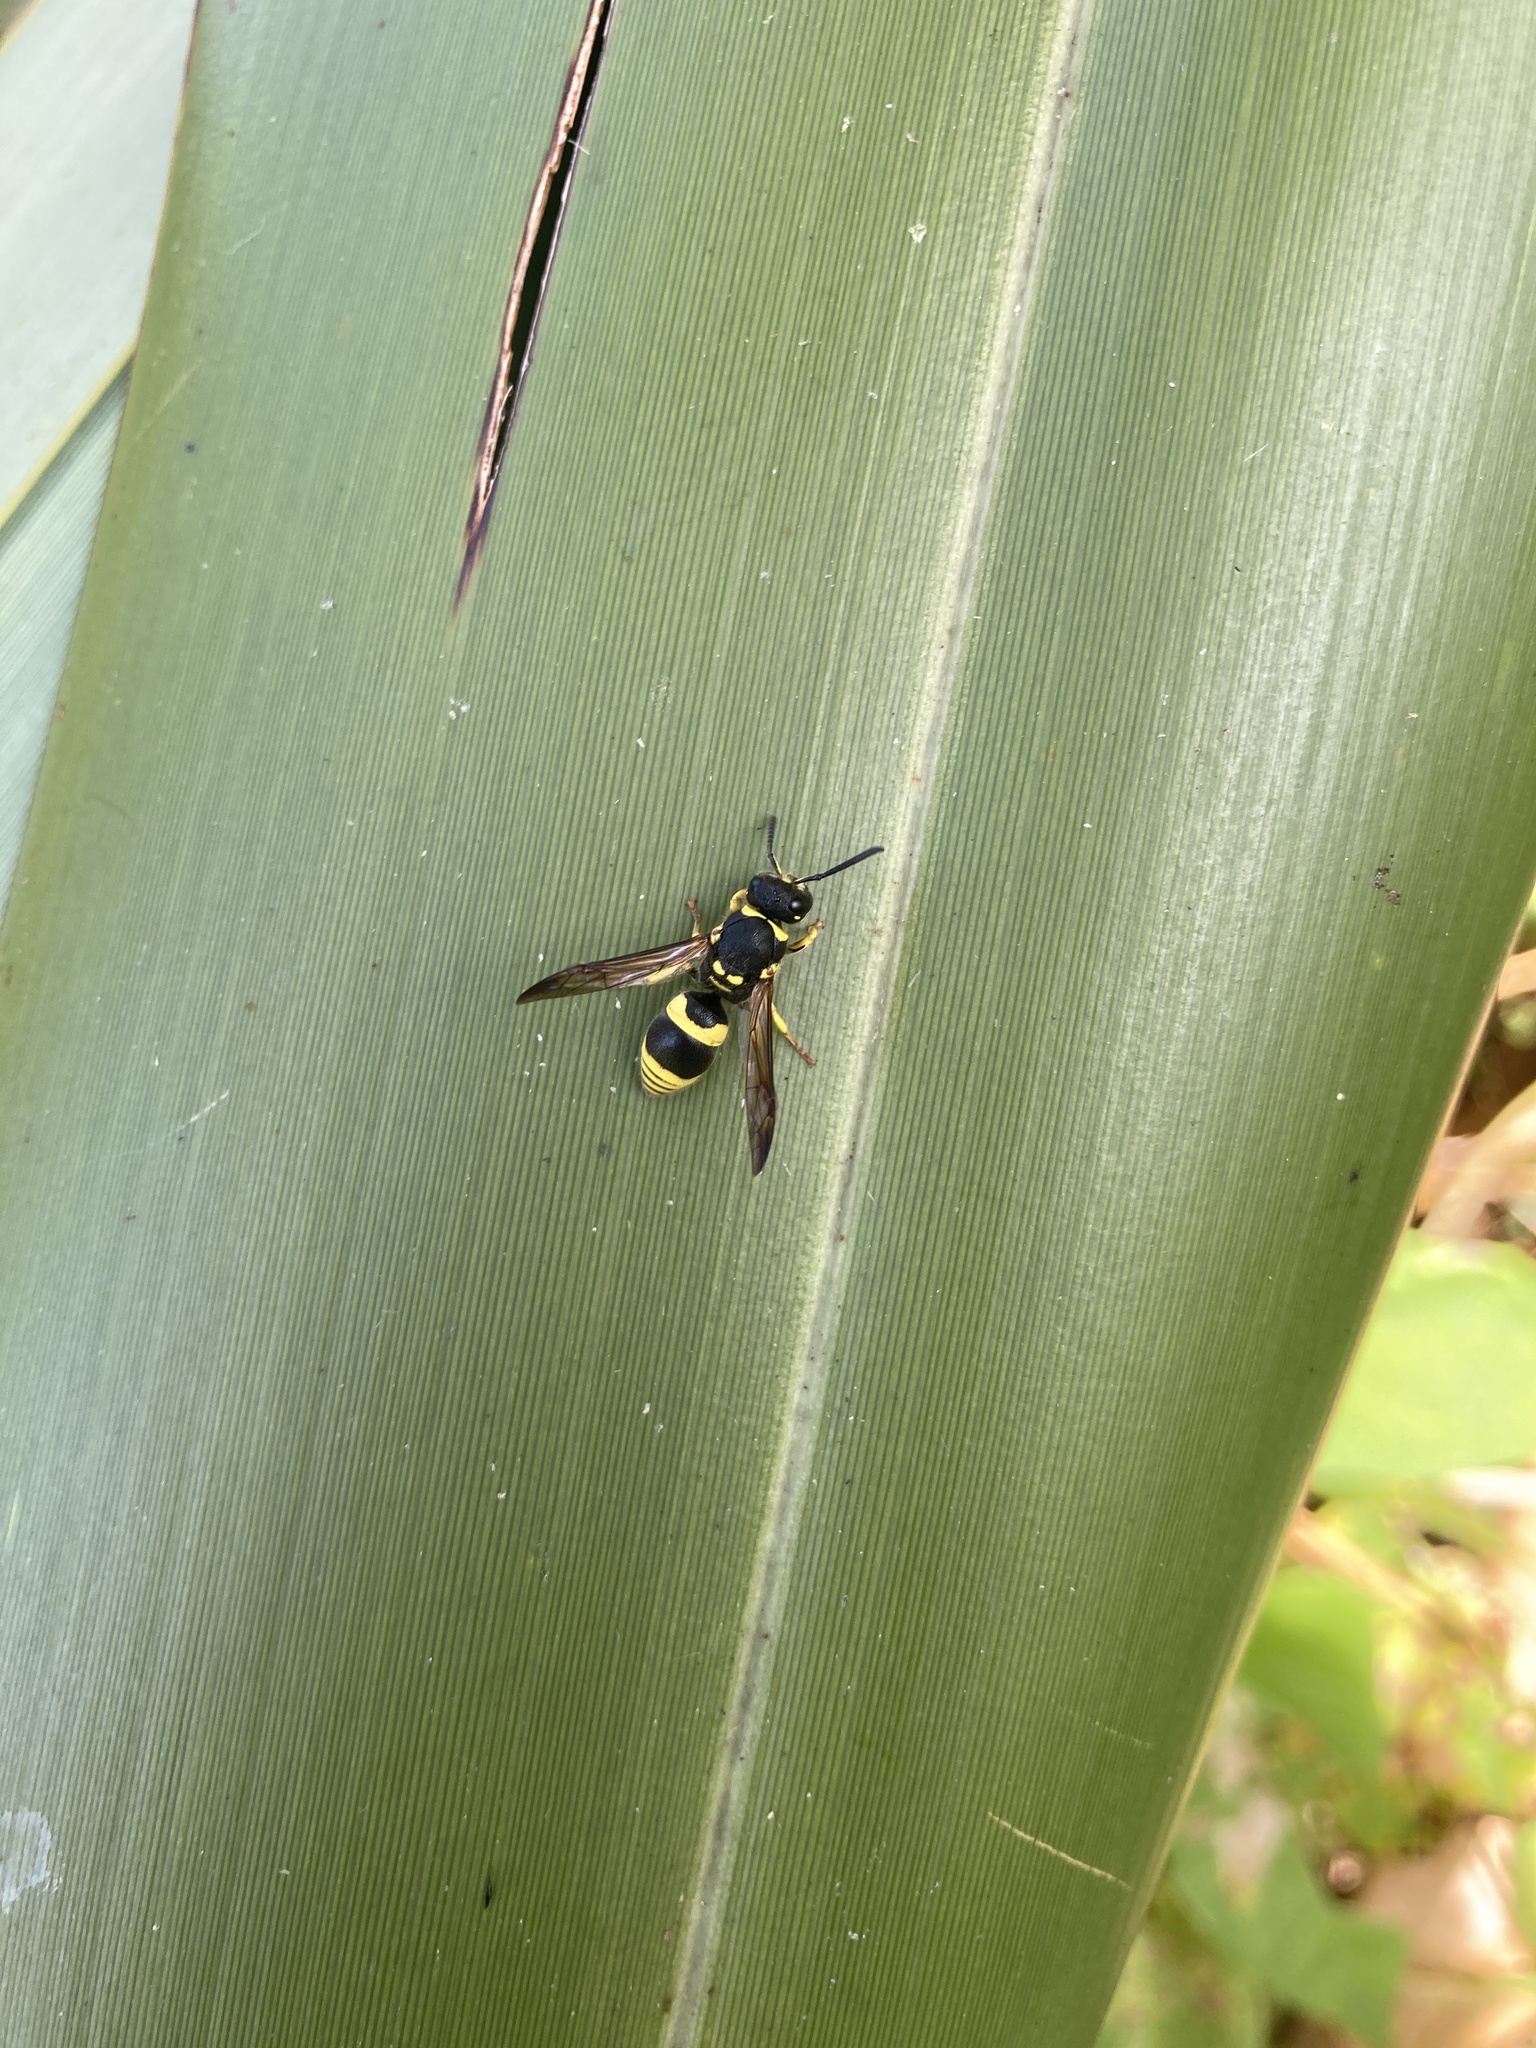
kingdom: Animalia
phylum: Arthropoda
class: Insecta
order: Hymenoptera
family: Vespidae
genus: Ancistrocerus
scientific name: Ancistrocerus gazella
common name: European tube wasp
